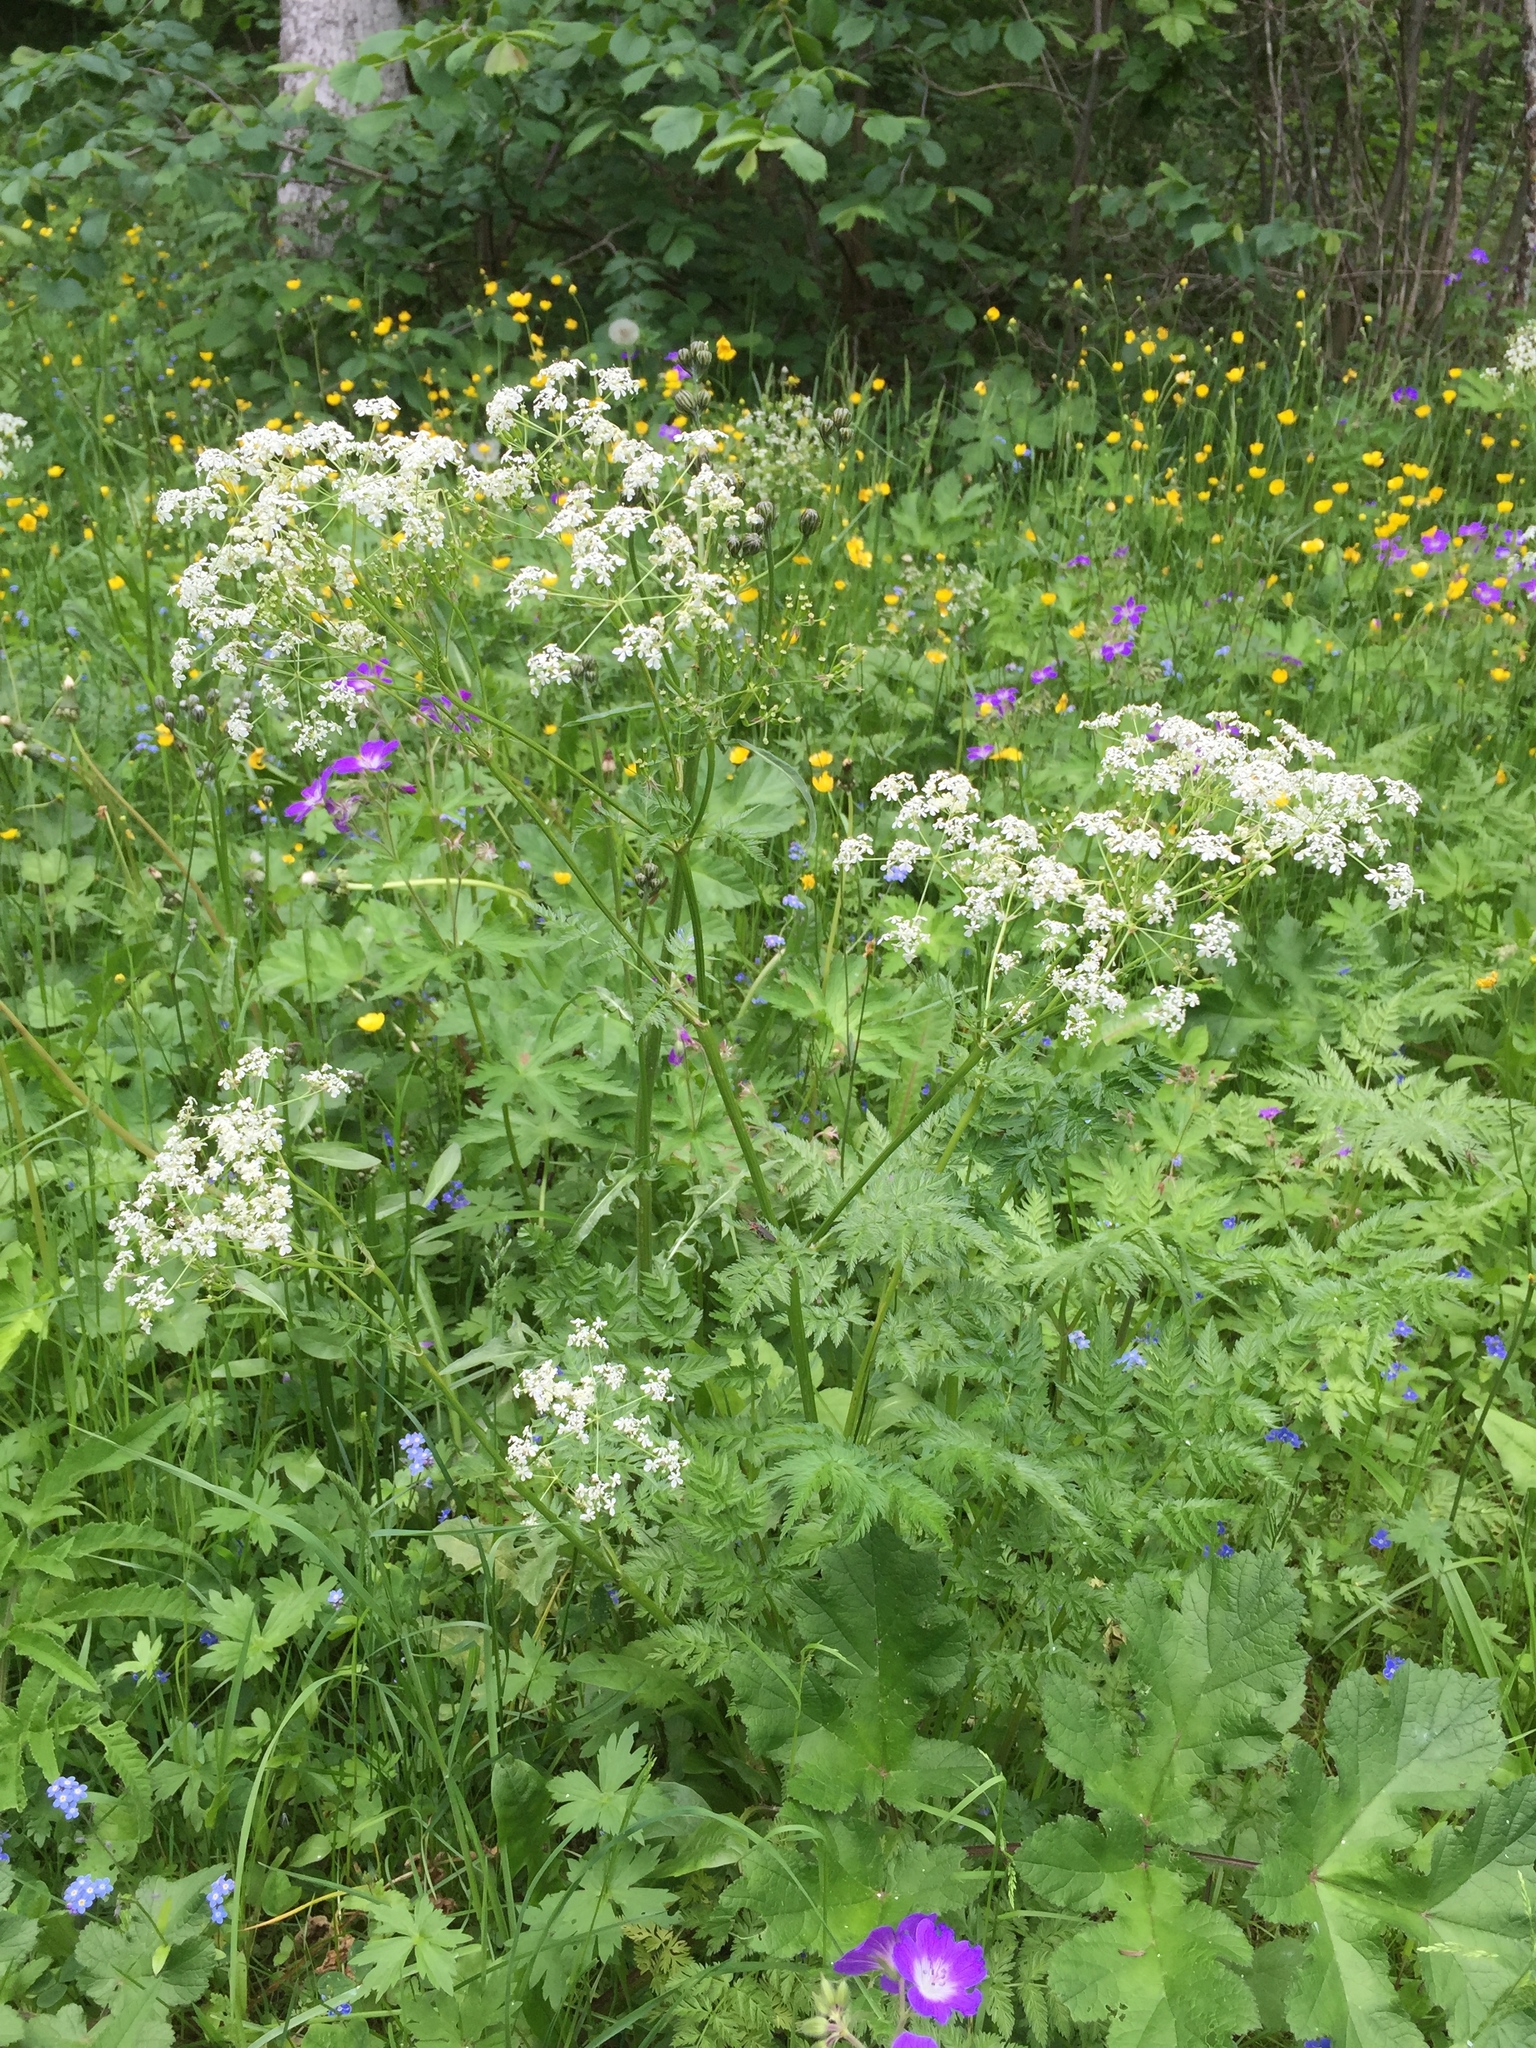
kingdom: Plantae
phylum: Tracheophyta
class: Magnoliopsida
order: Apiales
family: Apiaceae
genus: Chaerophyllum
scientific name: Chaerophyllum aureum
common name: Golden chervil
